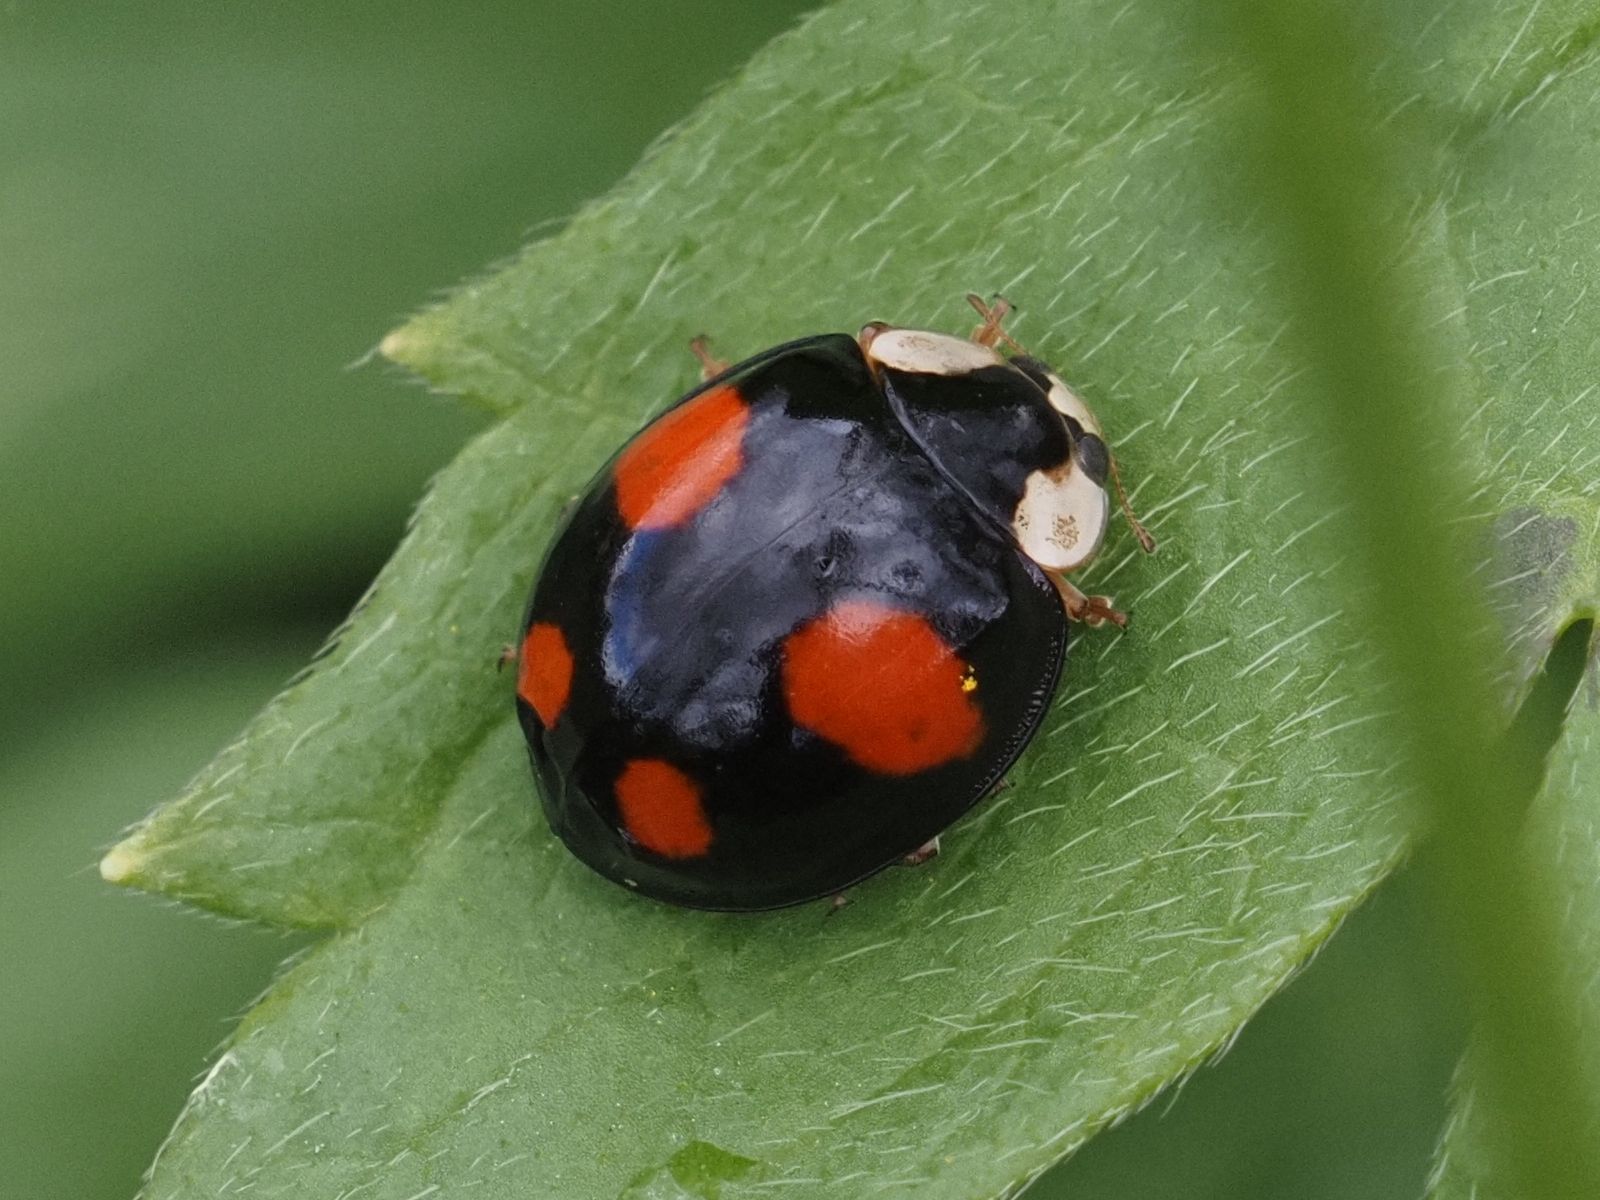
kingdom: Animalia
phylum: Arthropoda
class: Insecta
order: Coleoptera
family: Coccinellidae
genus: Harmonia
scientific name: Harmonia axyridis
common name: Harlequin ladybird
